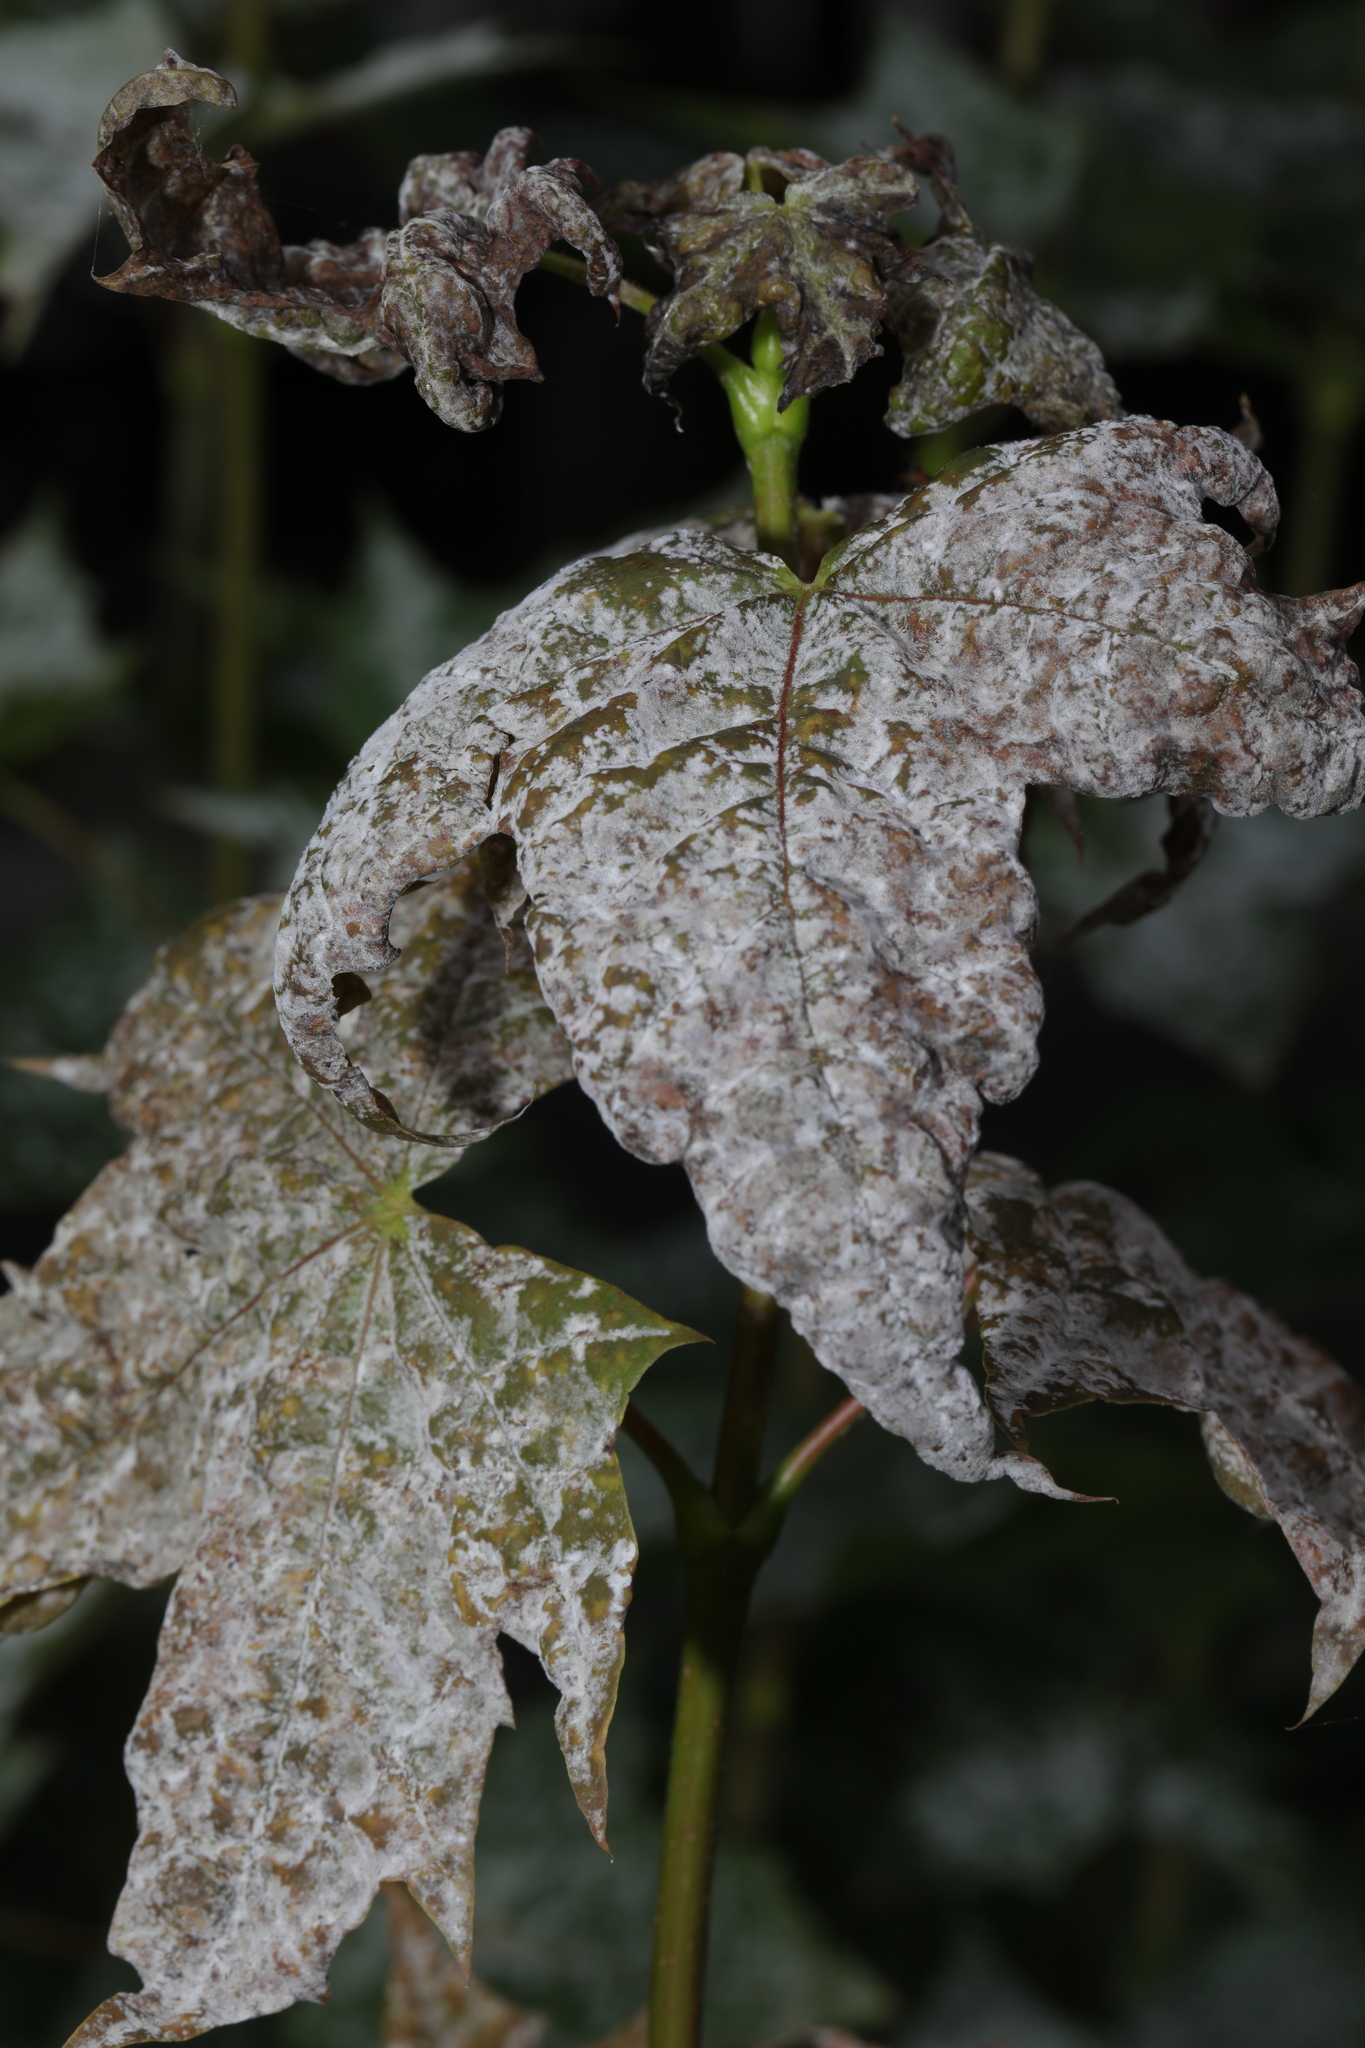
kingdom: Fungi
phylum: Ascomycota
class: Leotiomycetes
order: Helotiales
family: Erysiphaceae
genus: Sawadaea
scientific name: Sawadaea tulasnei
